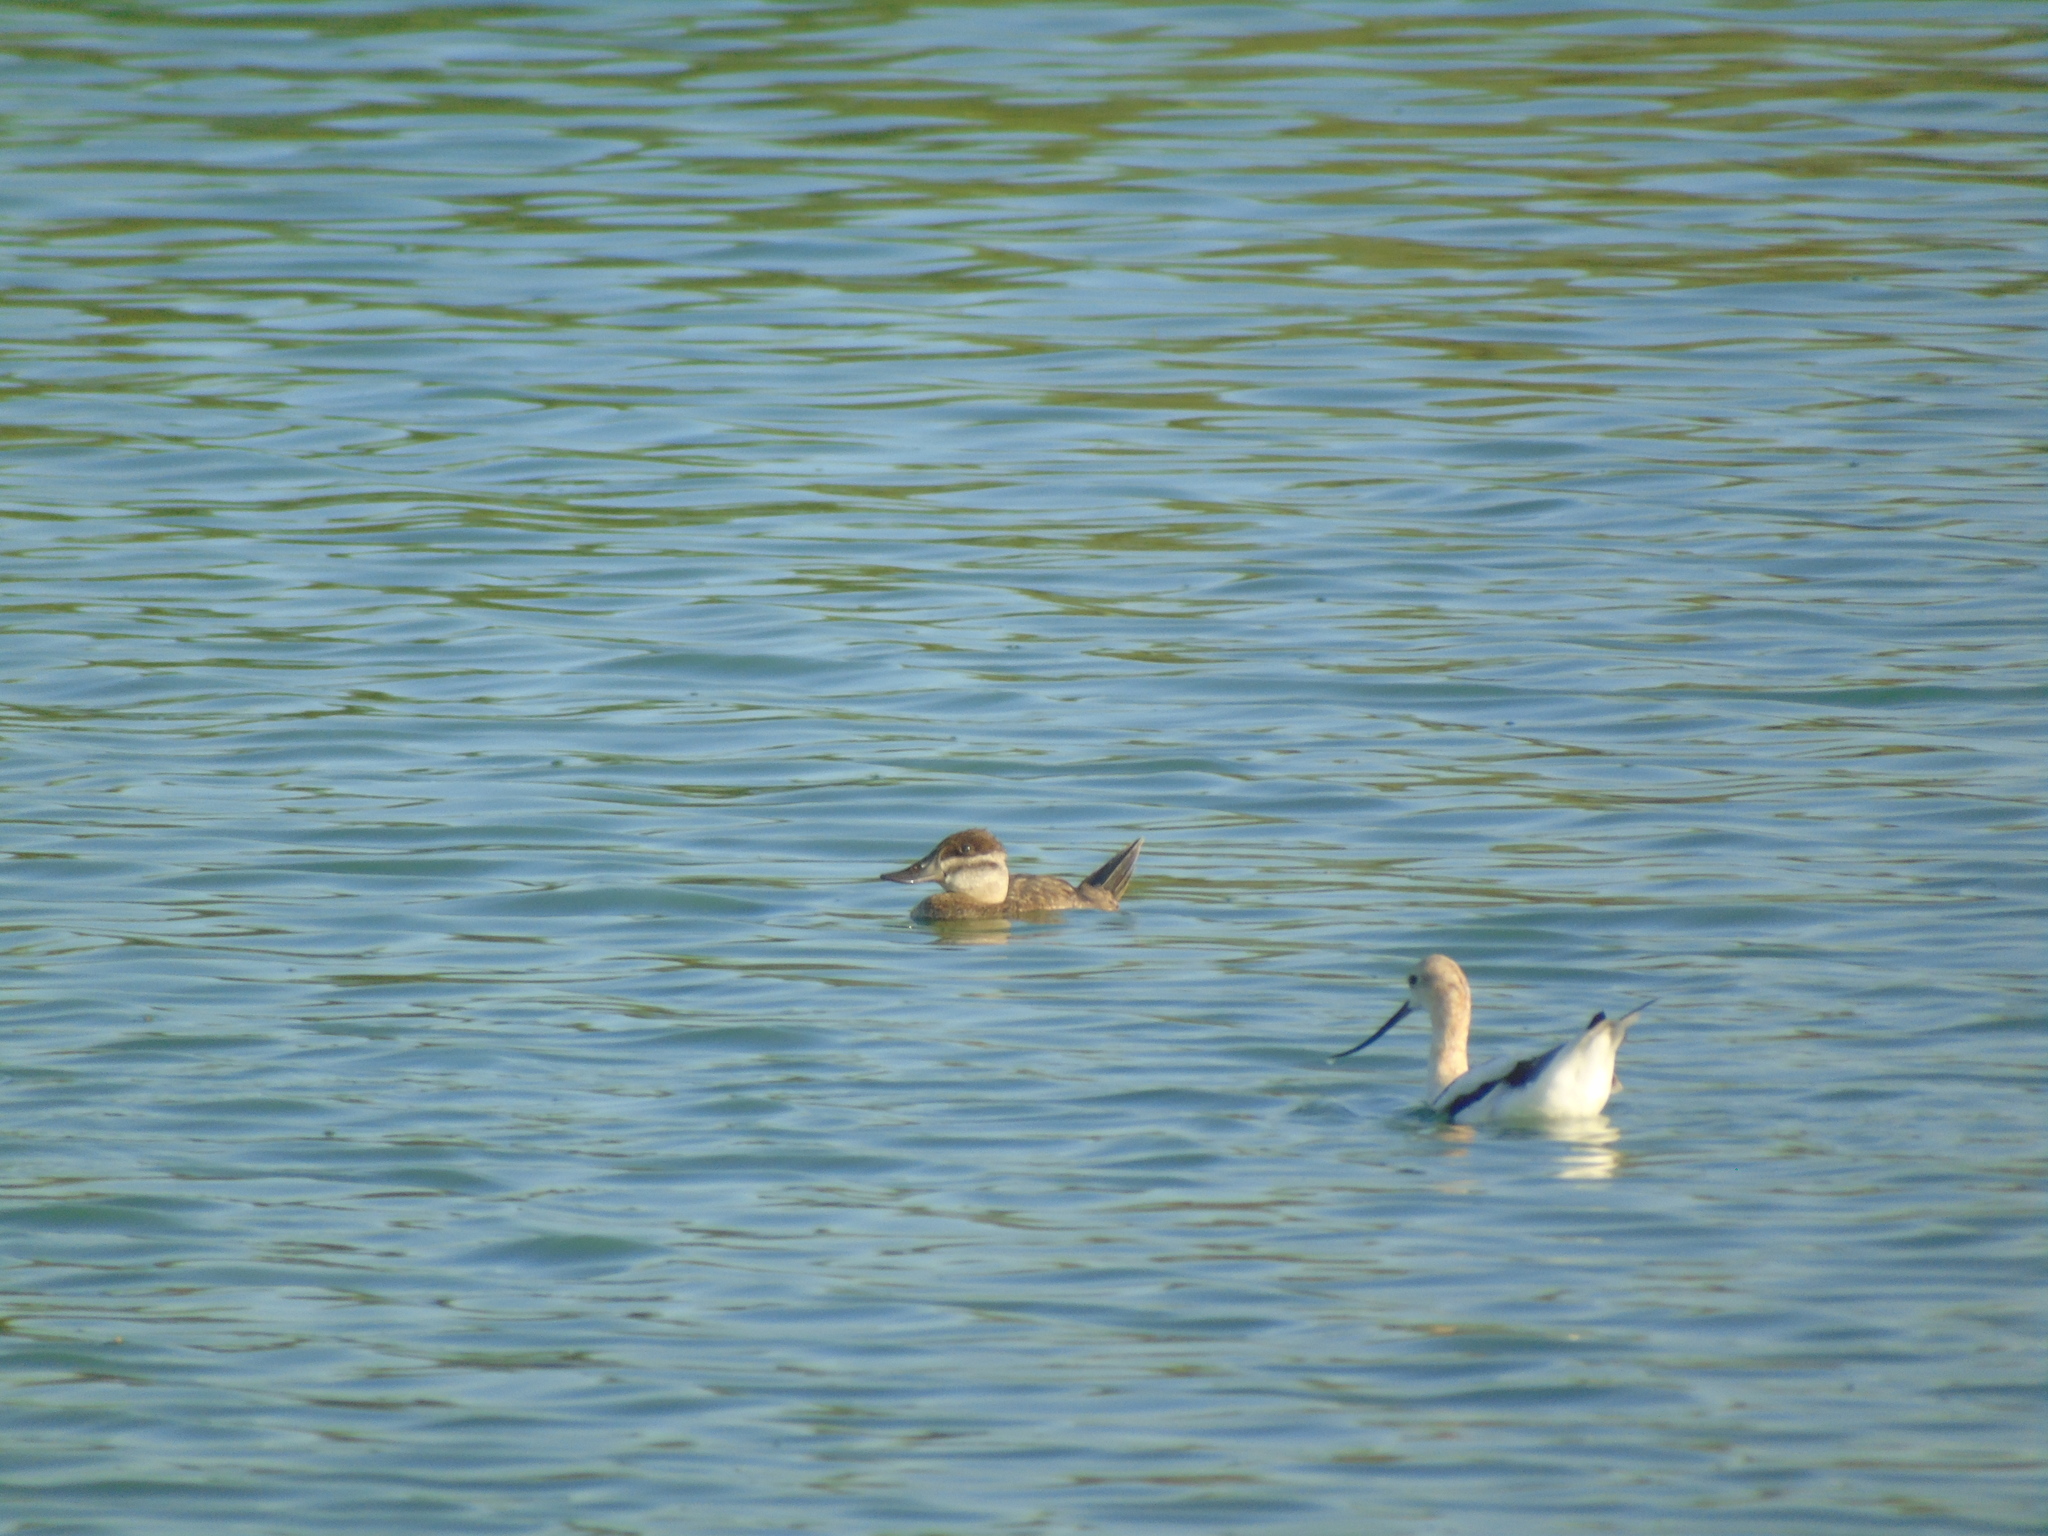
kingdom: Animalia
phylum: Chordata
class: Aves
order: Anseriformes
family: Anatidae
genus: Oxyura
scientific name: Oxyura jamaicensis
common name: Ruddy duck
